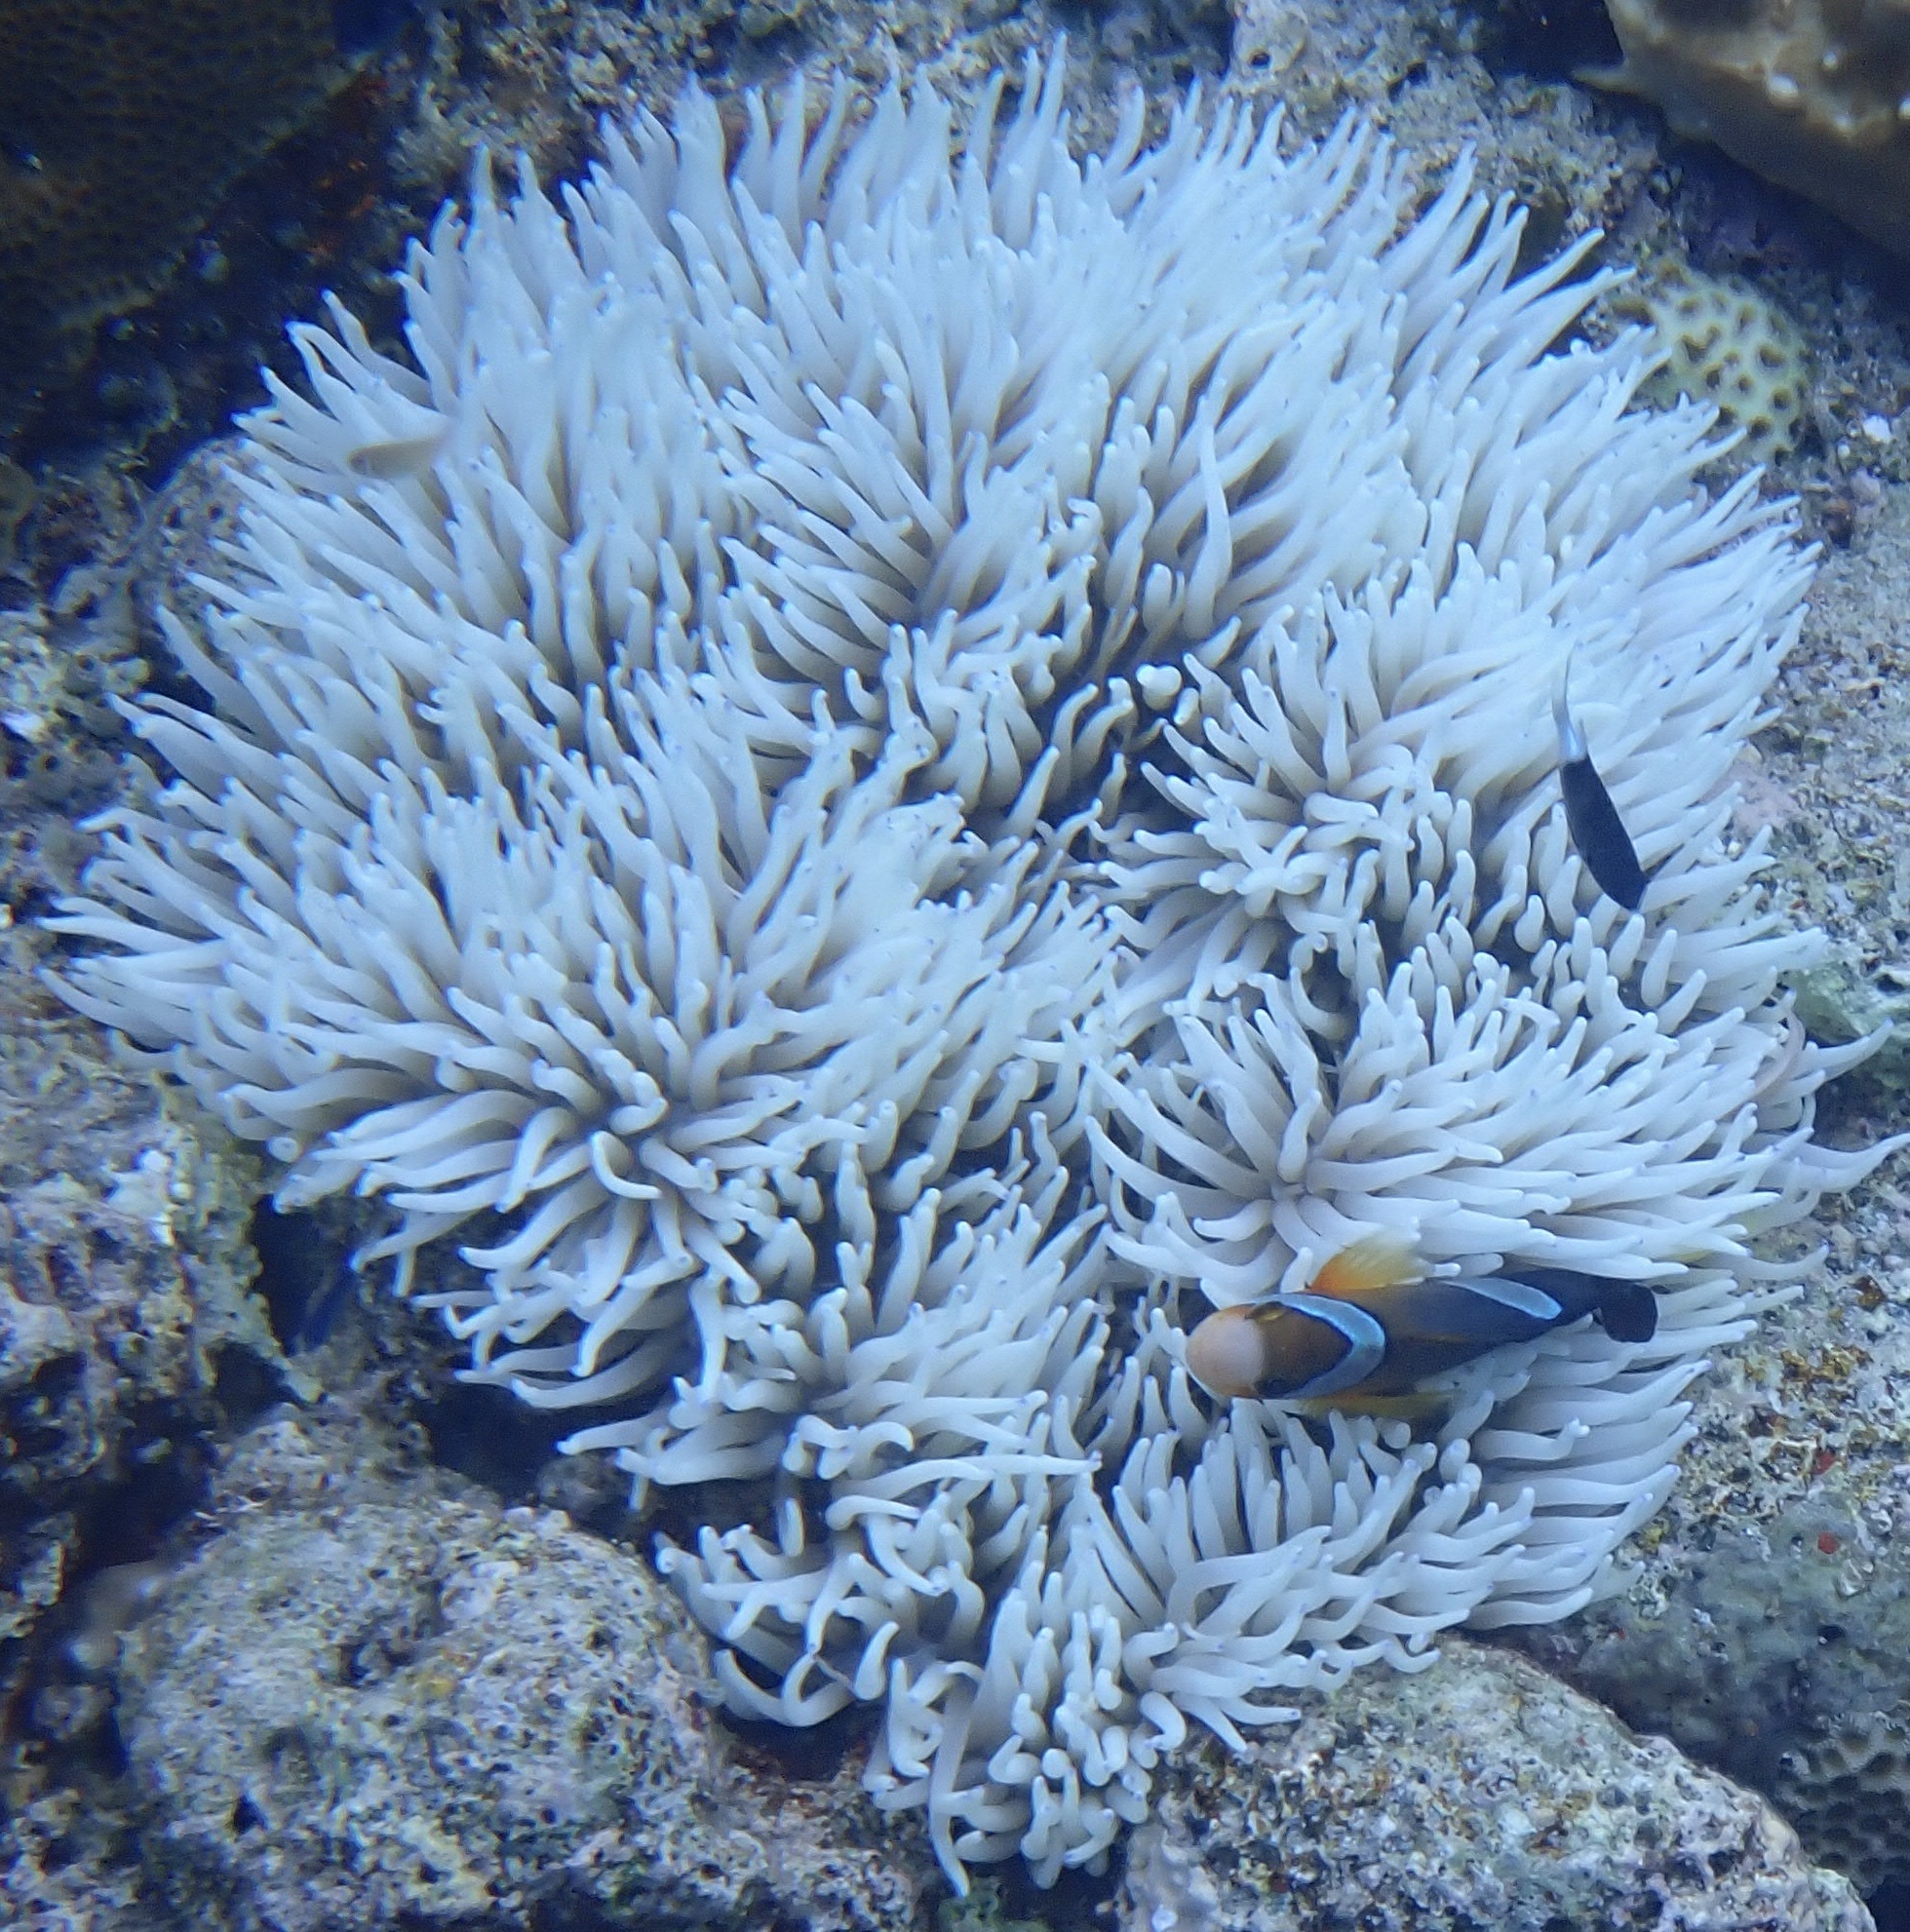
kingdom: Animalia
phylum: Chordata
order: Perciformes
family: Pomacentridae
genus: Amphiprion
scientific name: Amphiprion clarkii
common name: Clark's anemonefish
